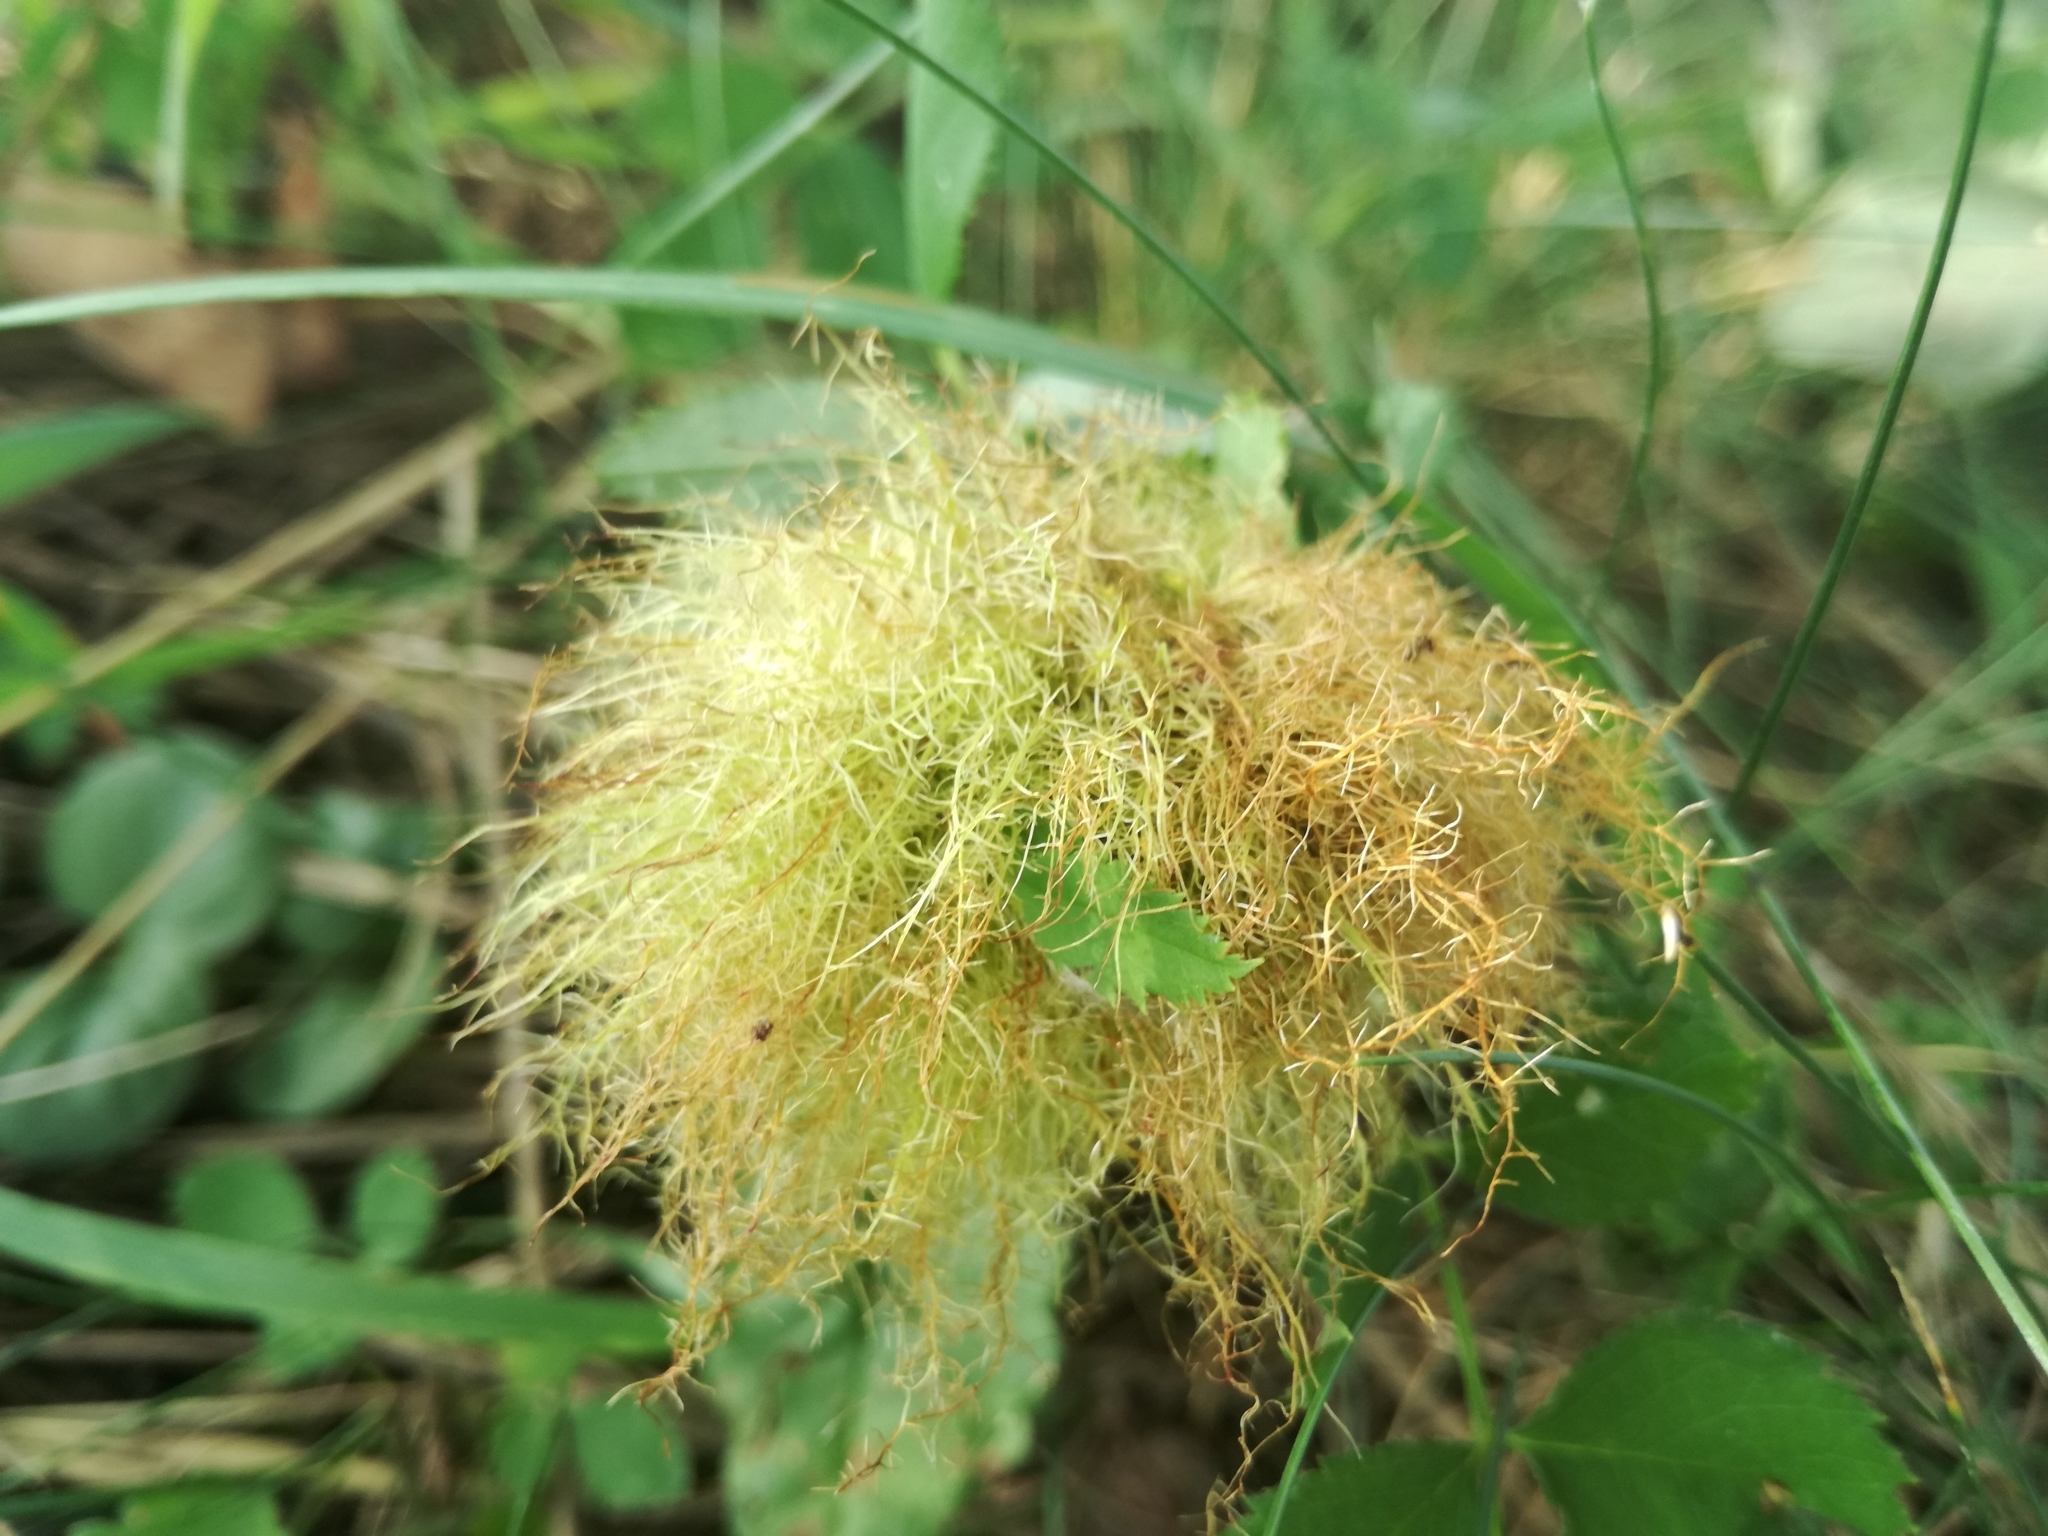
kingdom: Animalia
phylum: Arthropoda
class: Insecta
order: Hymenoptera
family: Cynipidae
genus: Diplolepis
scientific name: Diplolepis rosae
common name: Bedeguar gall
